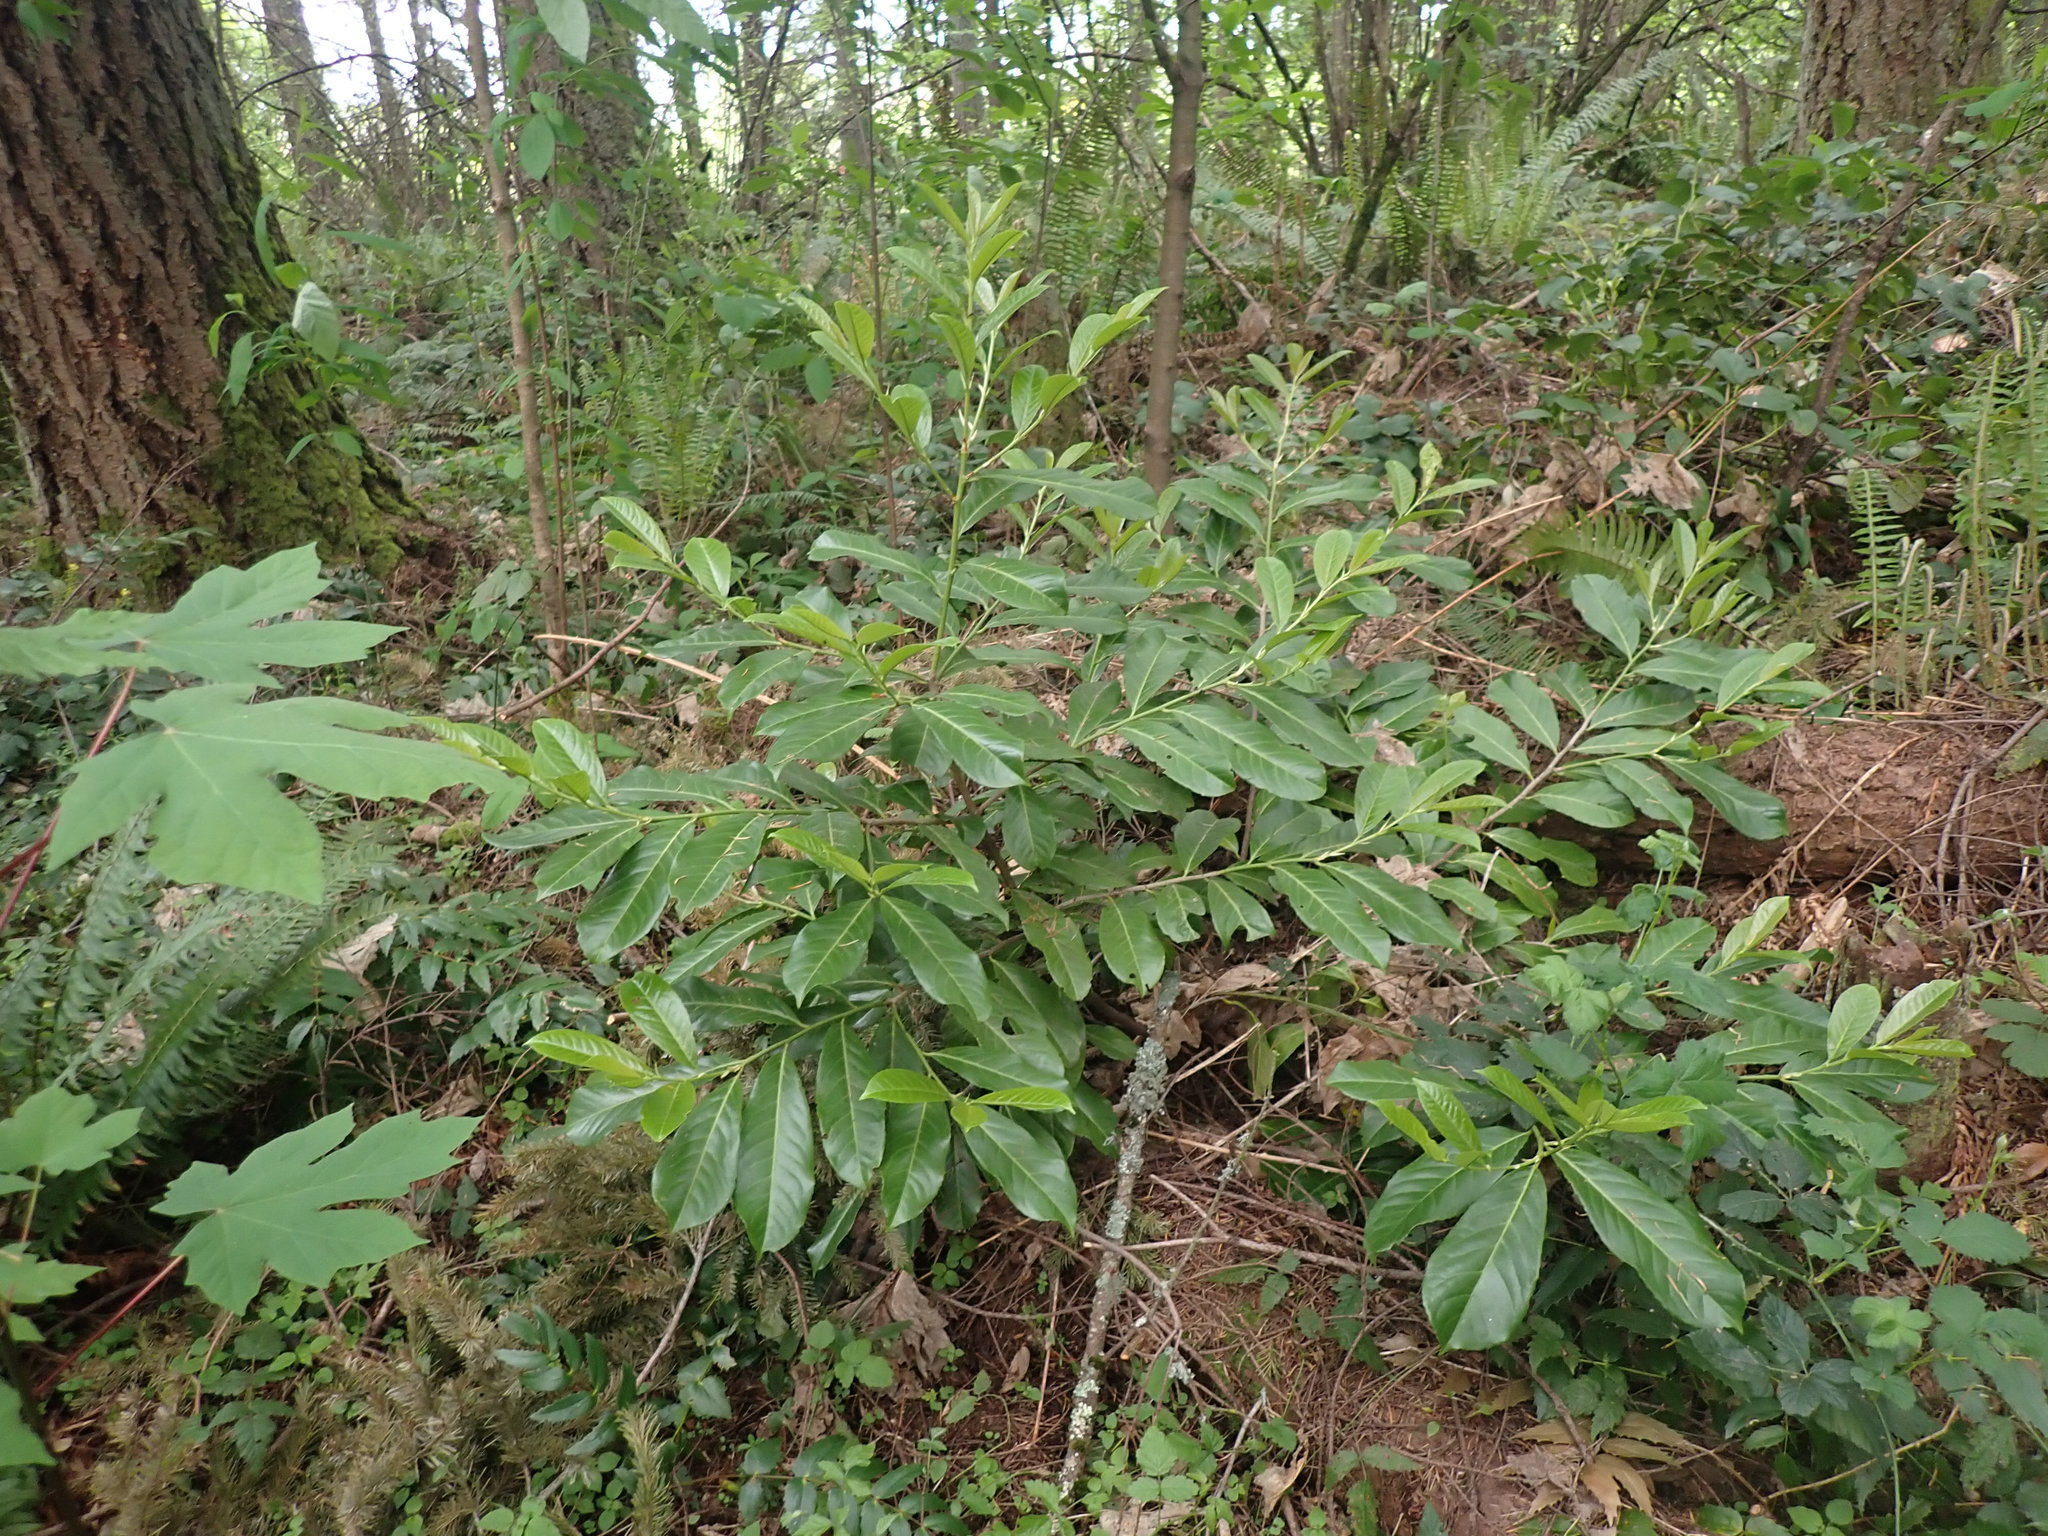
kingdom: Plantae
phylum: Tracheophyta
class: Magnoliopsida
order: Rosales
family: Rosaceae
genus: Prunus
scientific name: Prunus laurocerasus
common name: Cherry laurel
